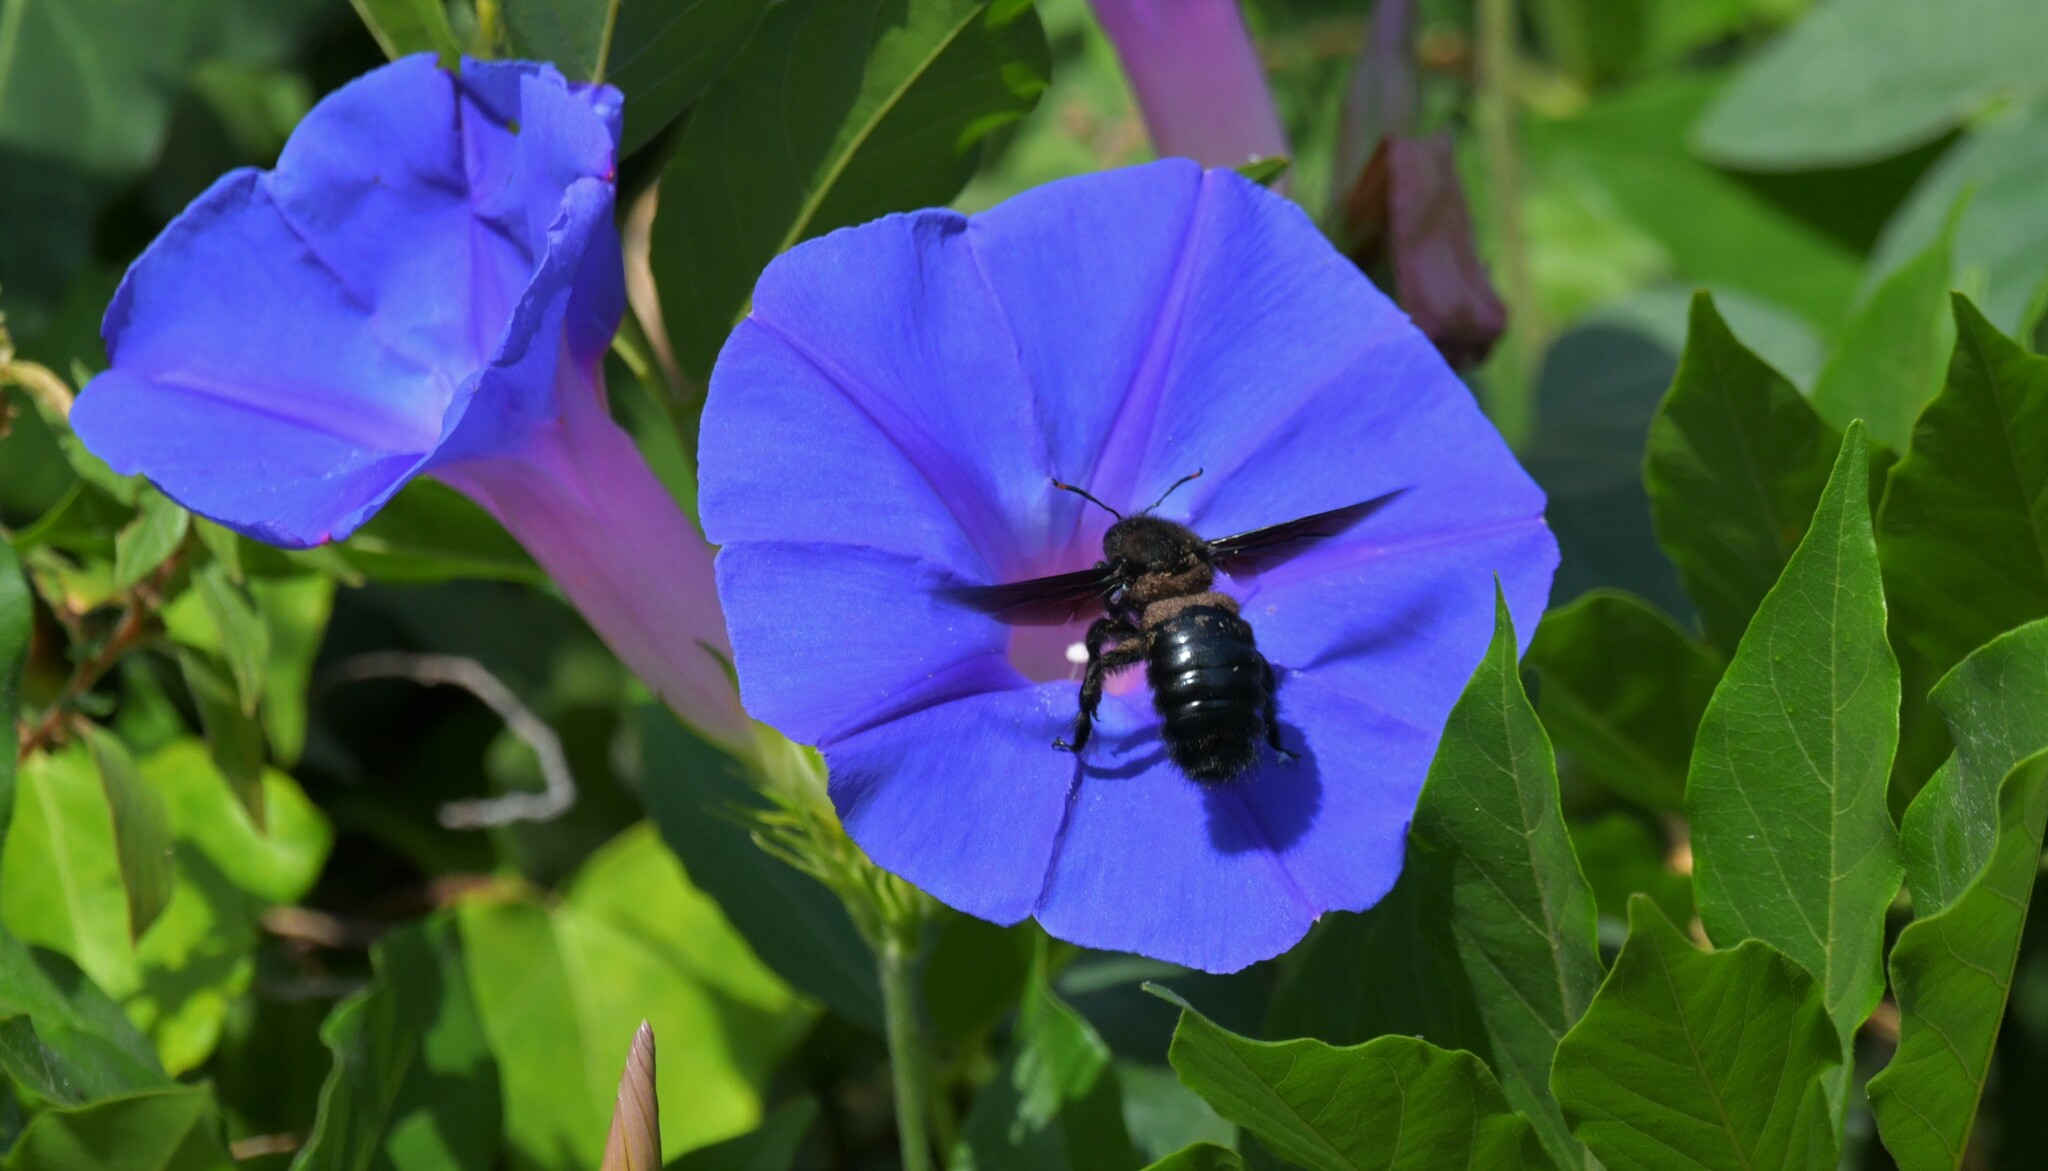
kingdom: Animalia
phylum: Arthropoda
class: Insecta
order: Hymenoptera
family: Apidae
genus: Xylocopa
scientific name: Xylocopa violacea
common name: Violet carpenter bee
